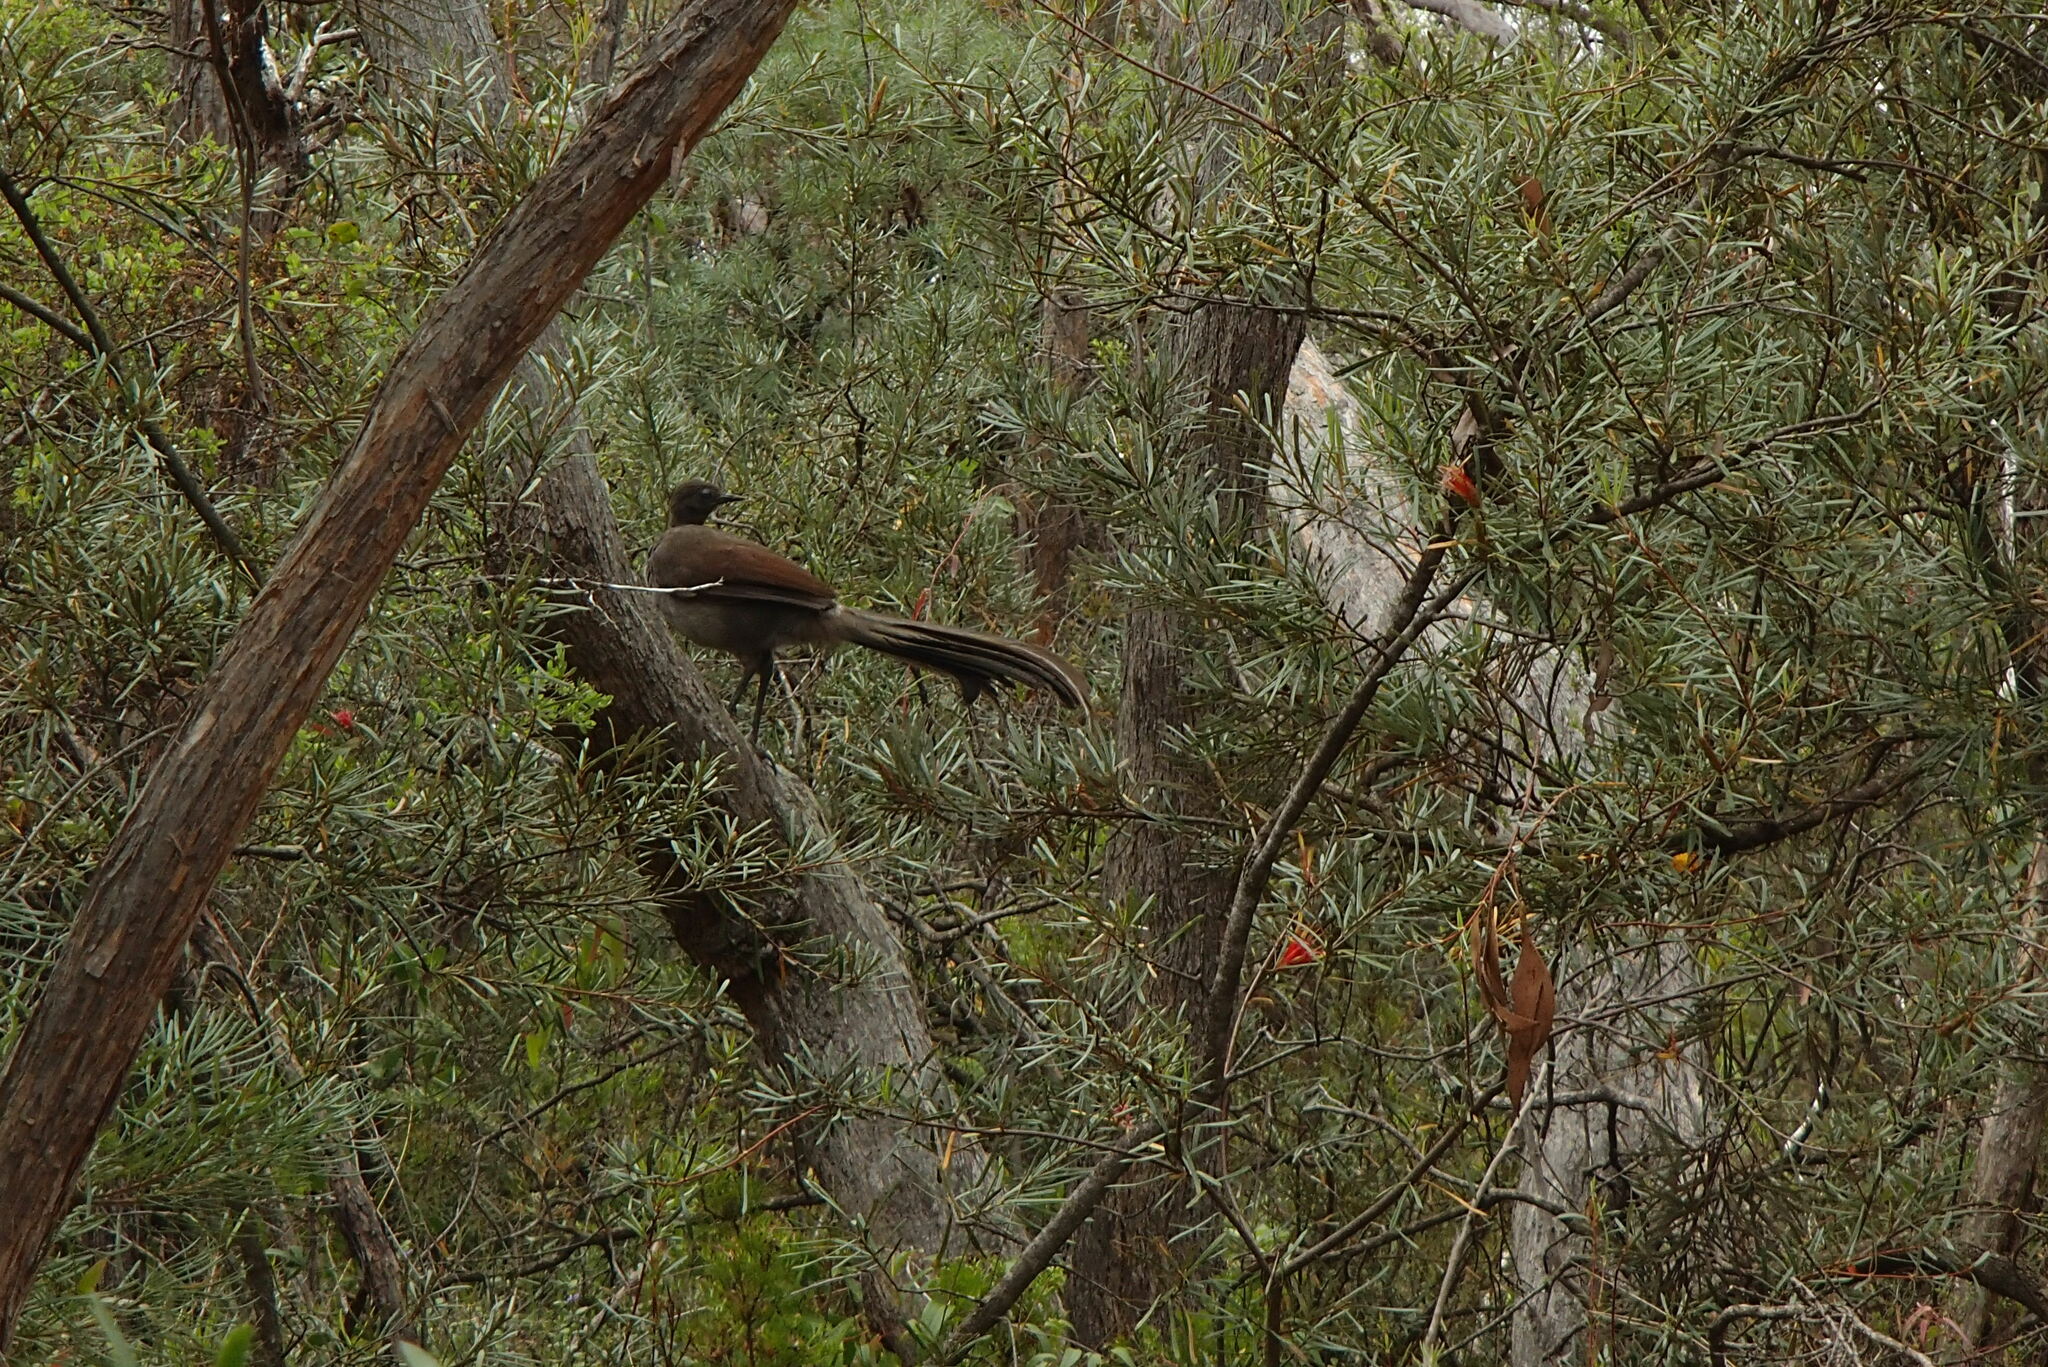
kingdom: Animalia
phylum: Chordata
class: Aves
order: Passeriformes
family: Menuridae
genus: Menura
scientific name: Menura novaehollandiae
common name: Superb lyrebird
